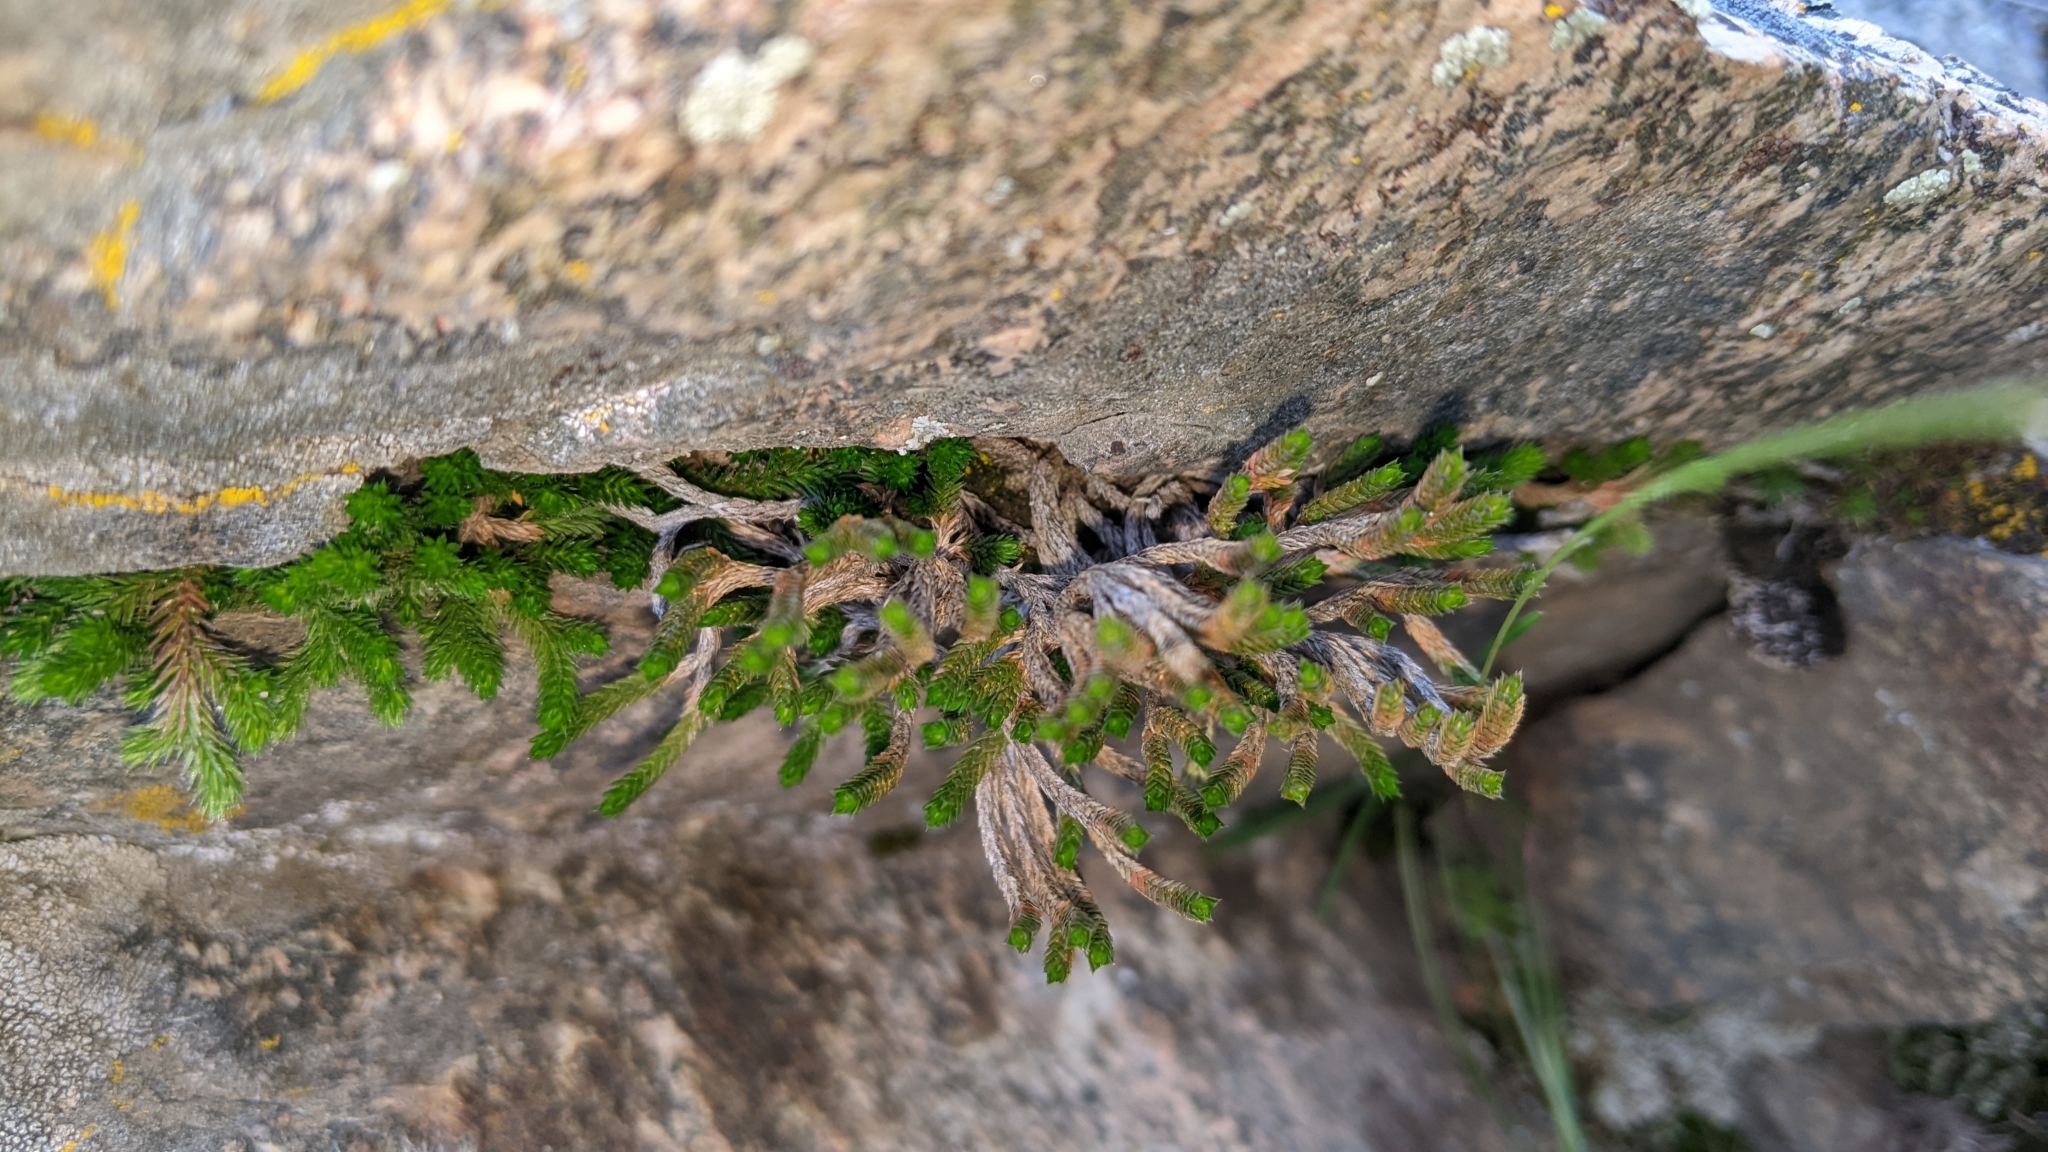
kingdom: Plantae
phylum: Tracheophyta
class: Lycopodiopsida
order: Selaginellales
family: Selaginellaceae
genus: Selaginella
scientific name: Selaginella wallacei
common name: Wallace's selaginella
